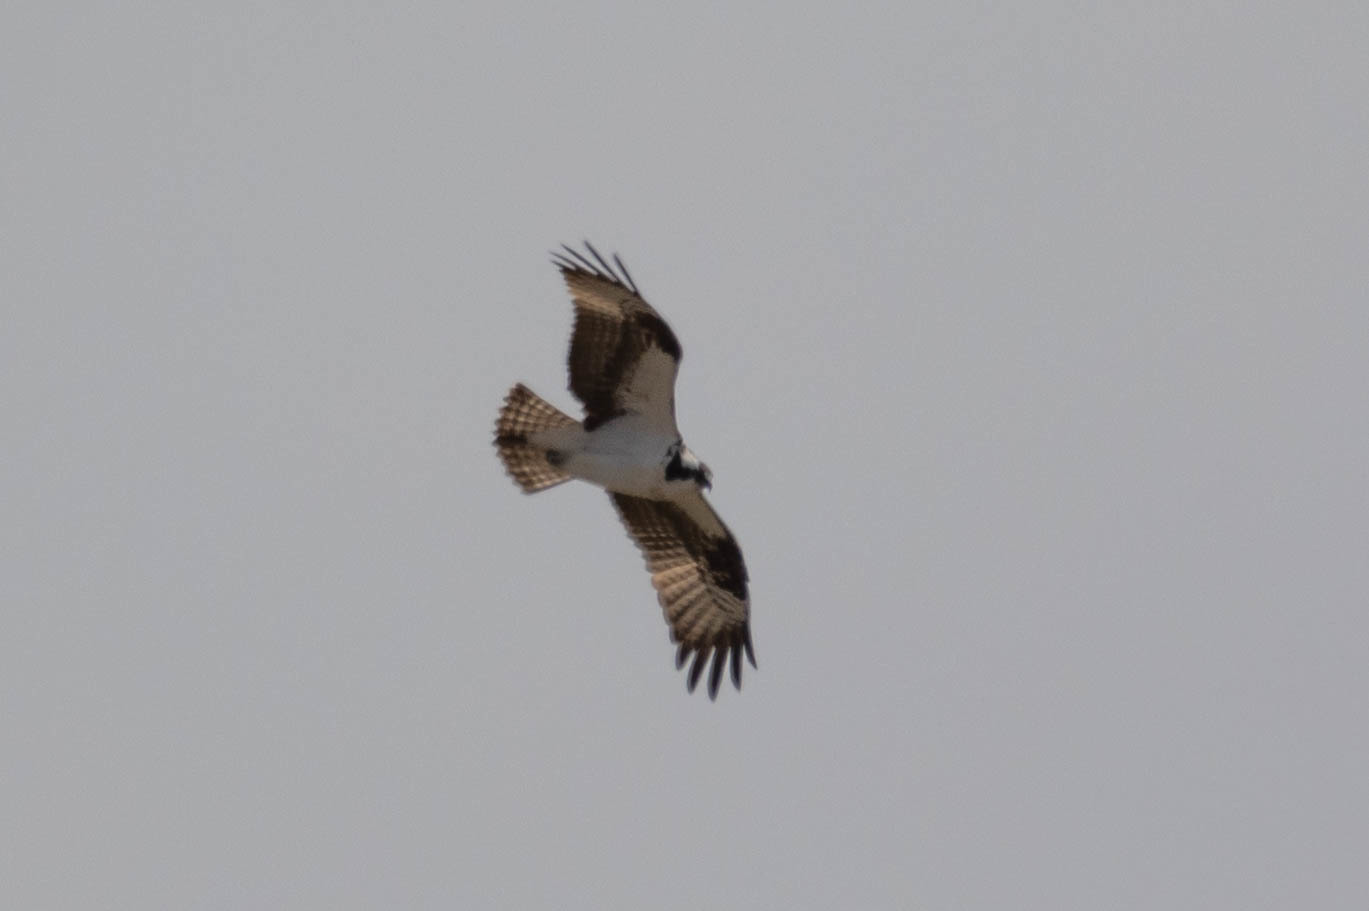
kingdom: Animalia
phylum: Chordata
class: Aves
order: Accipitriformes
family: Pandionidae
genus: Pandion
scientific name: Pandion haliaetus
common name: Osprey
